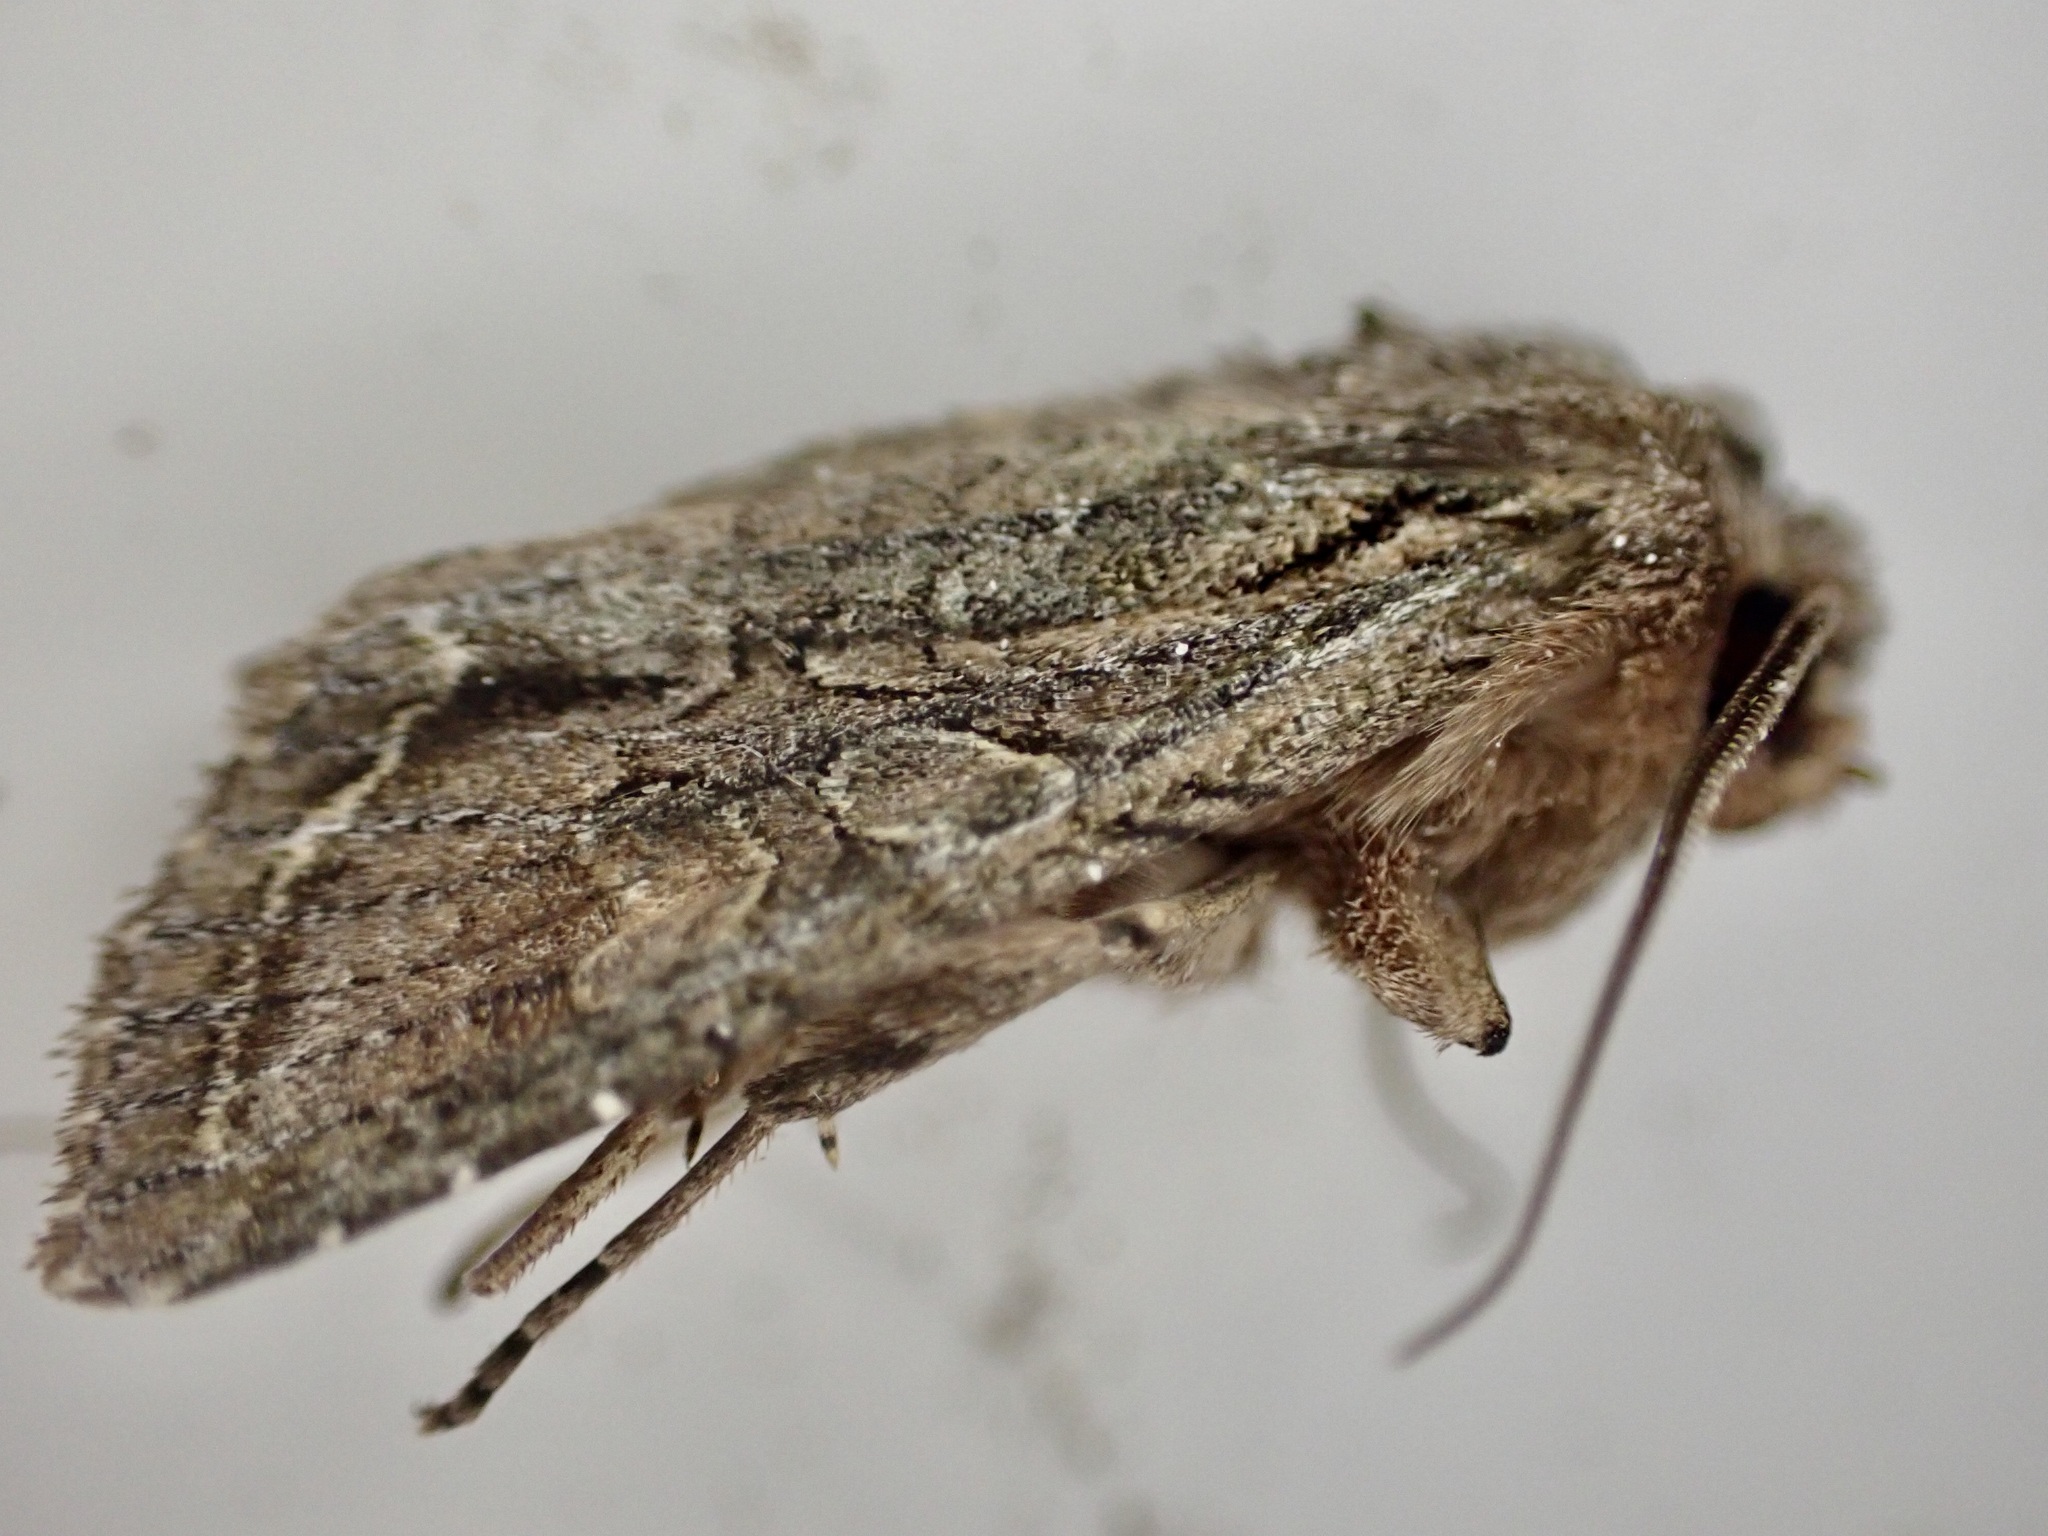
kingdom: Animalia
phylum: Arthropoda
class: Insecta
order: Lepidoptera
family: Noctuidae
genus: Ichneutica
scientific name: Ichneutica mutans
